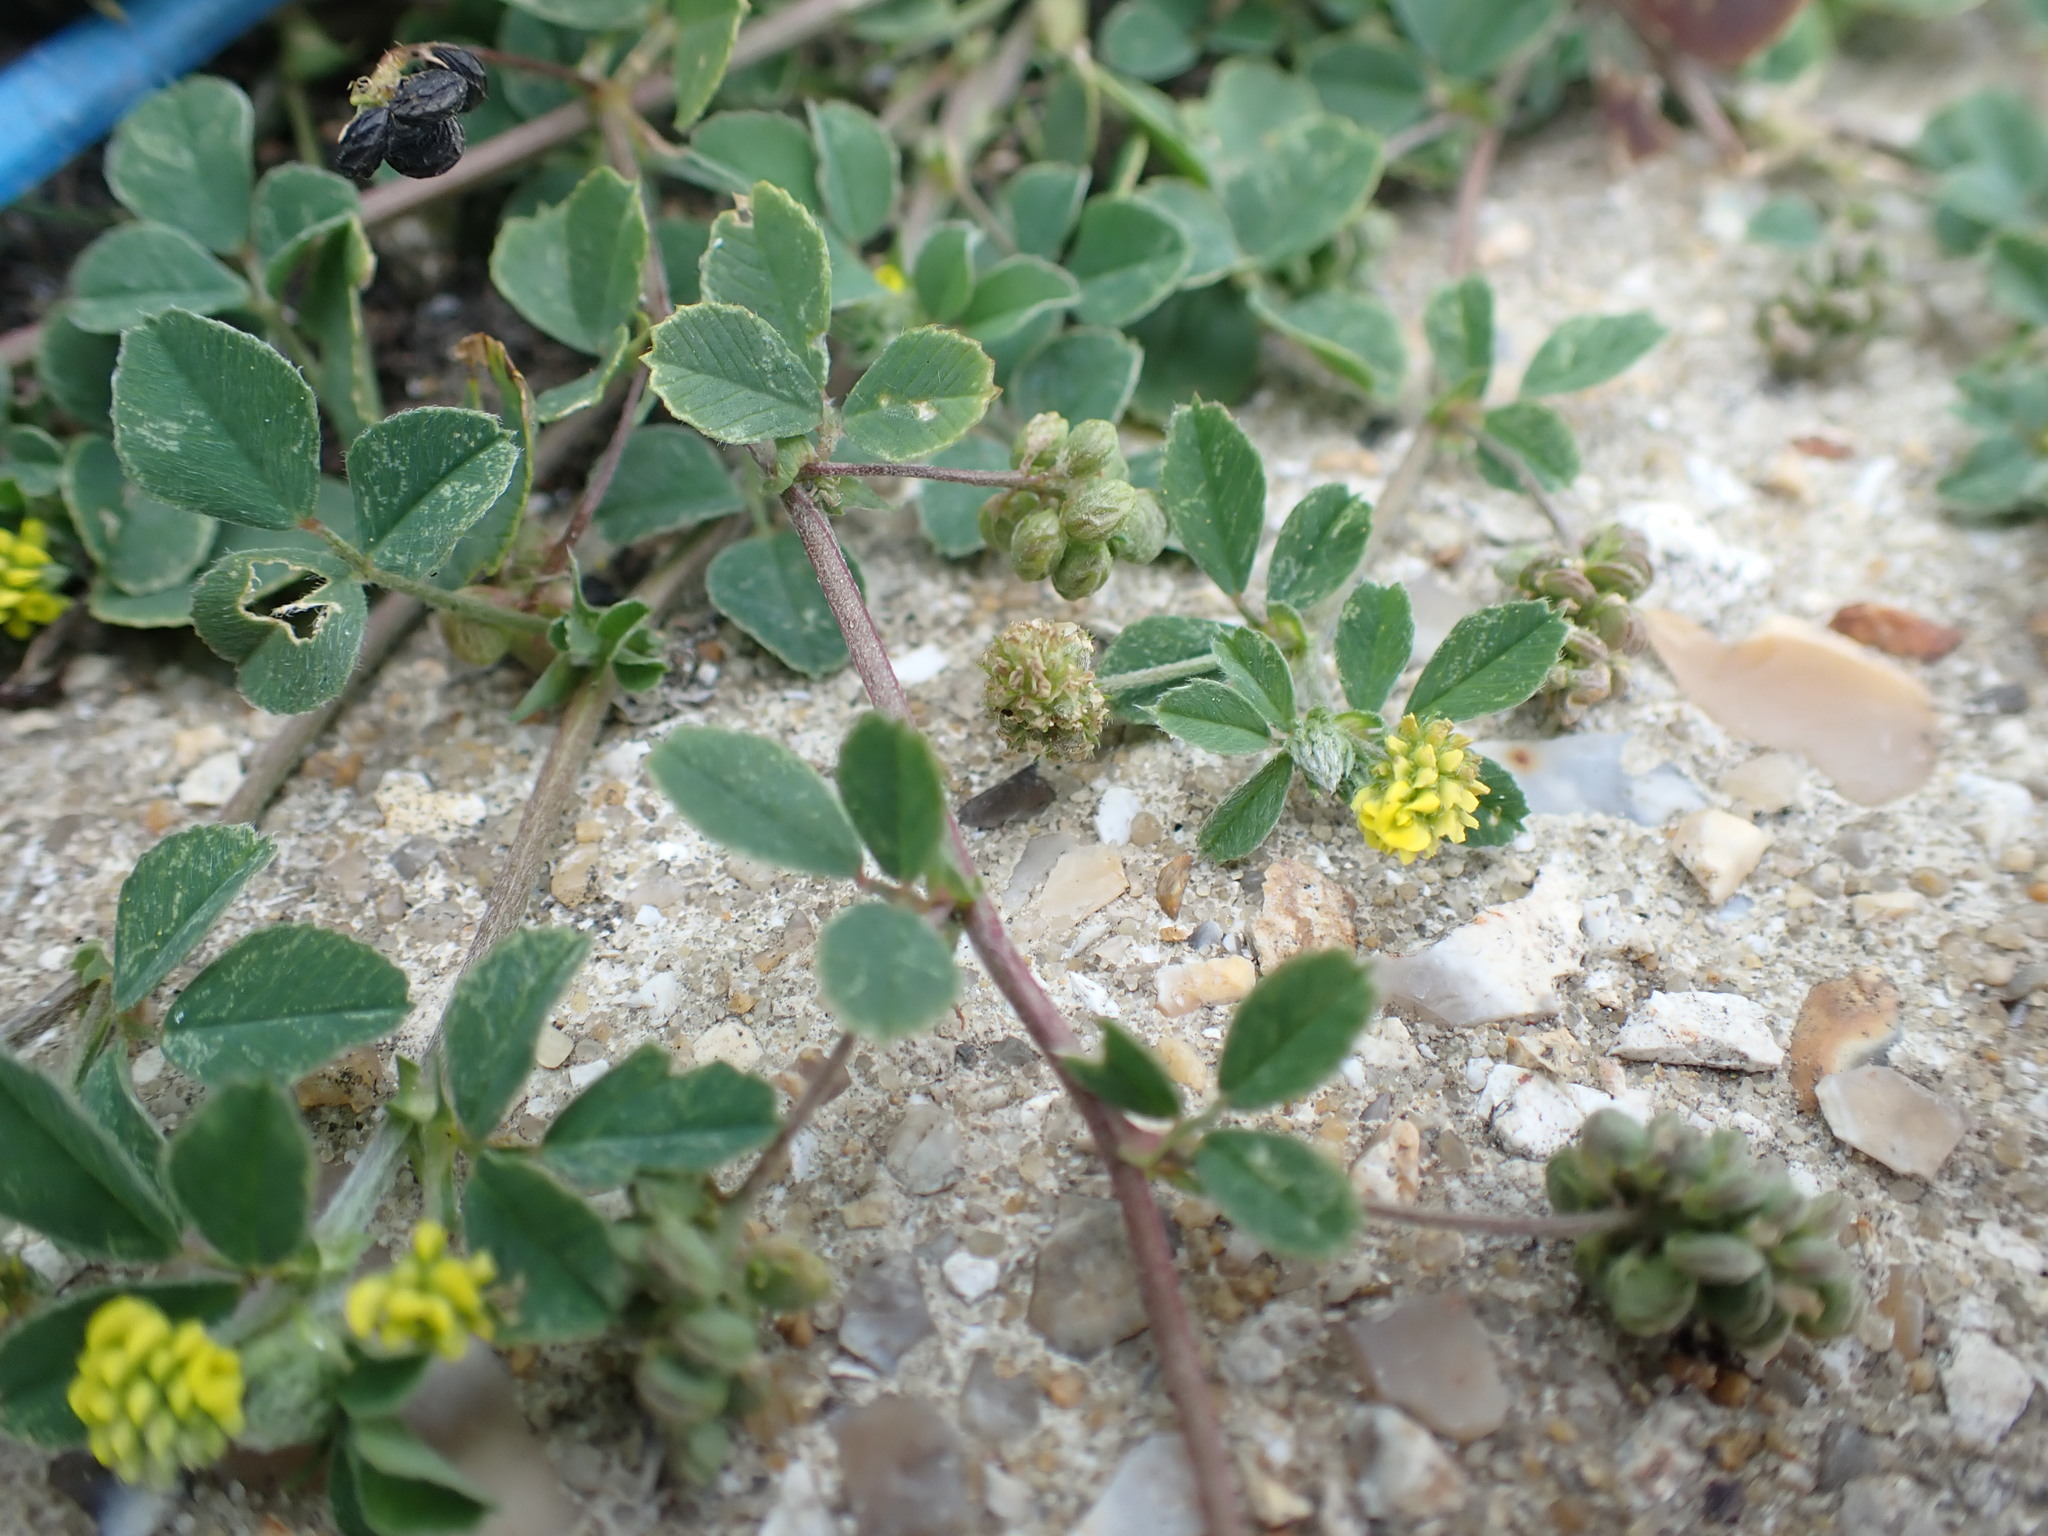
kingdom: Plantae
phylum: Tracheophyta
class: Magnoliopsida
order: Fabales
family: Fabaceae
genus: Medicago
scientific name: Medicago lupulina
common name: Black medick
